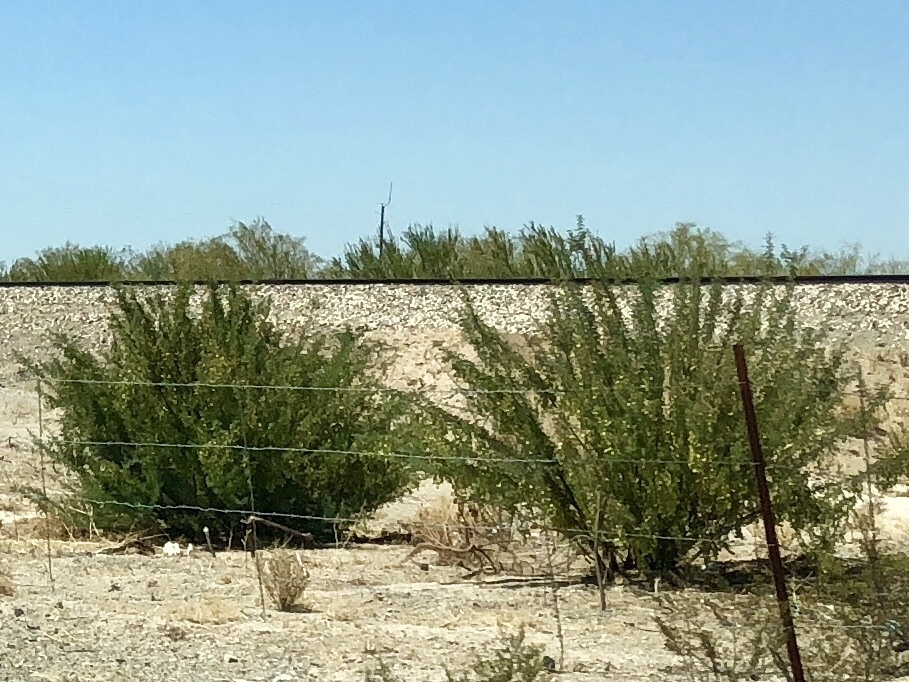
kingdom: Plantae
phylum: Tracheophyta
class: Magnoliopsida
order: Zygophyllales
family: Zygophyllaceae
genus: Larrea
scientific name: Larrea tridentata
